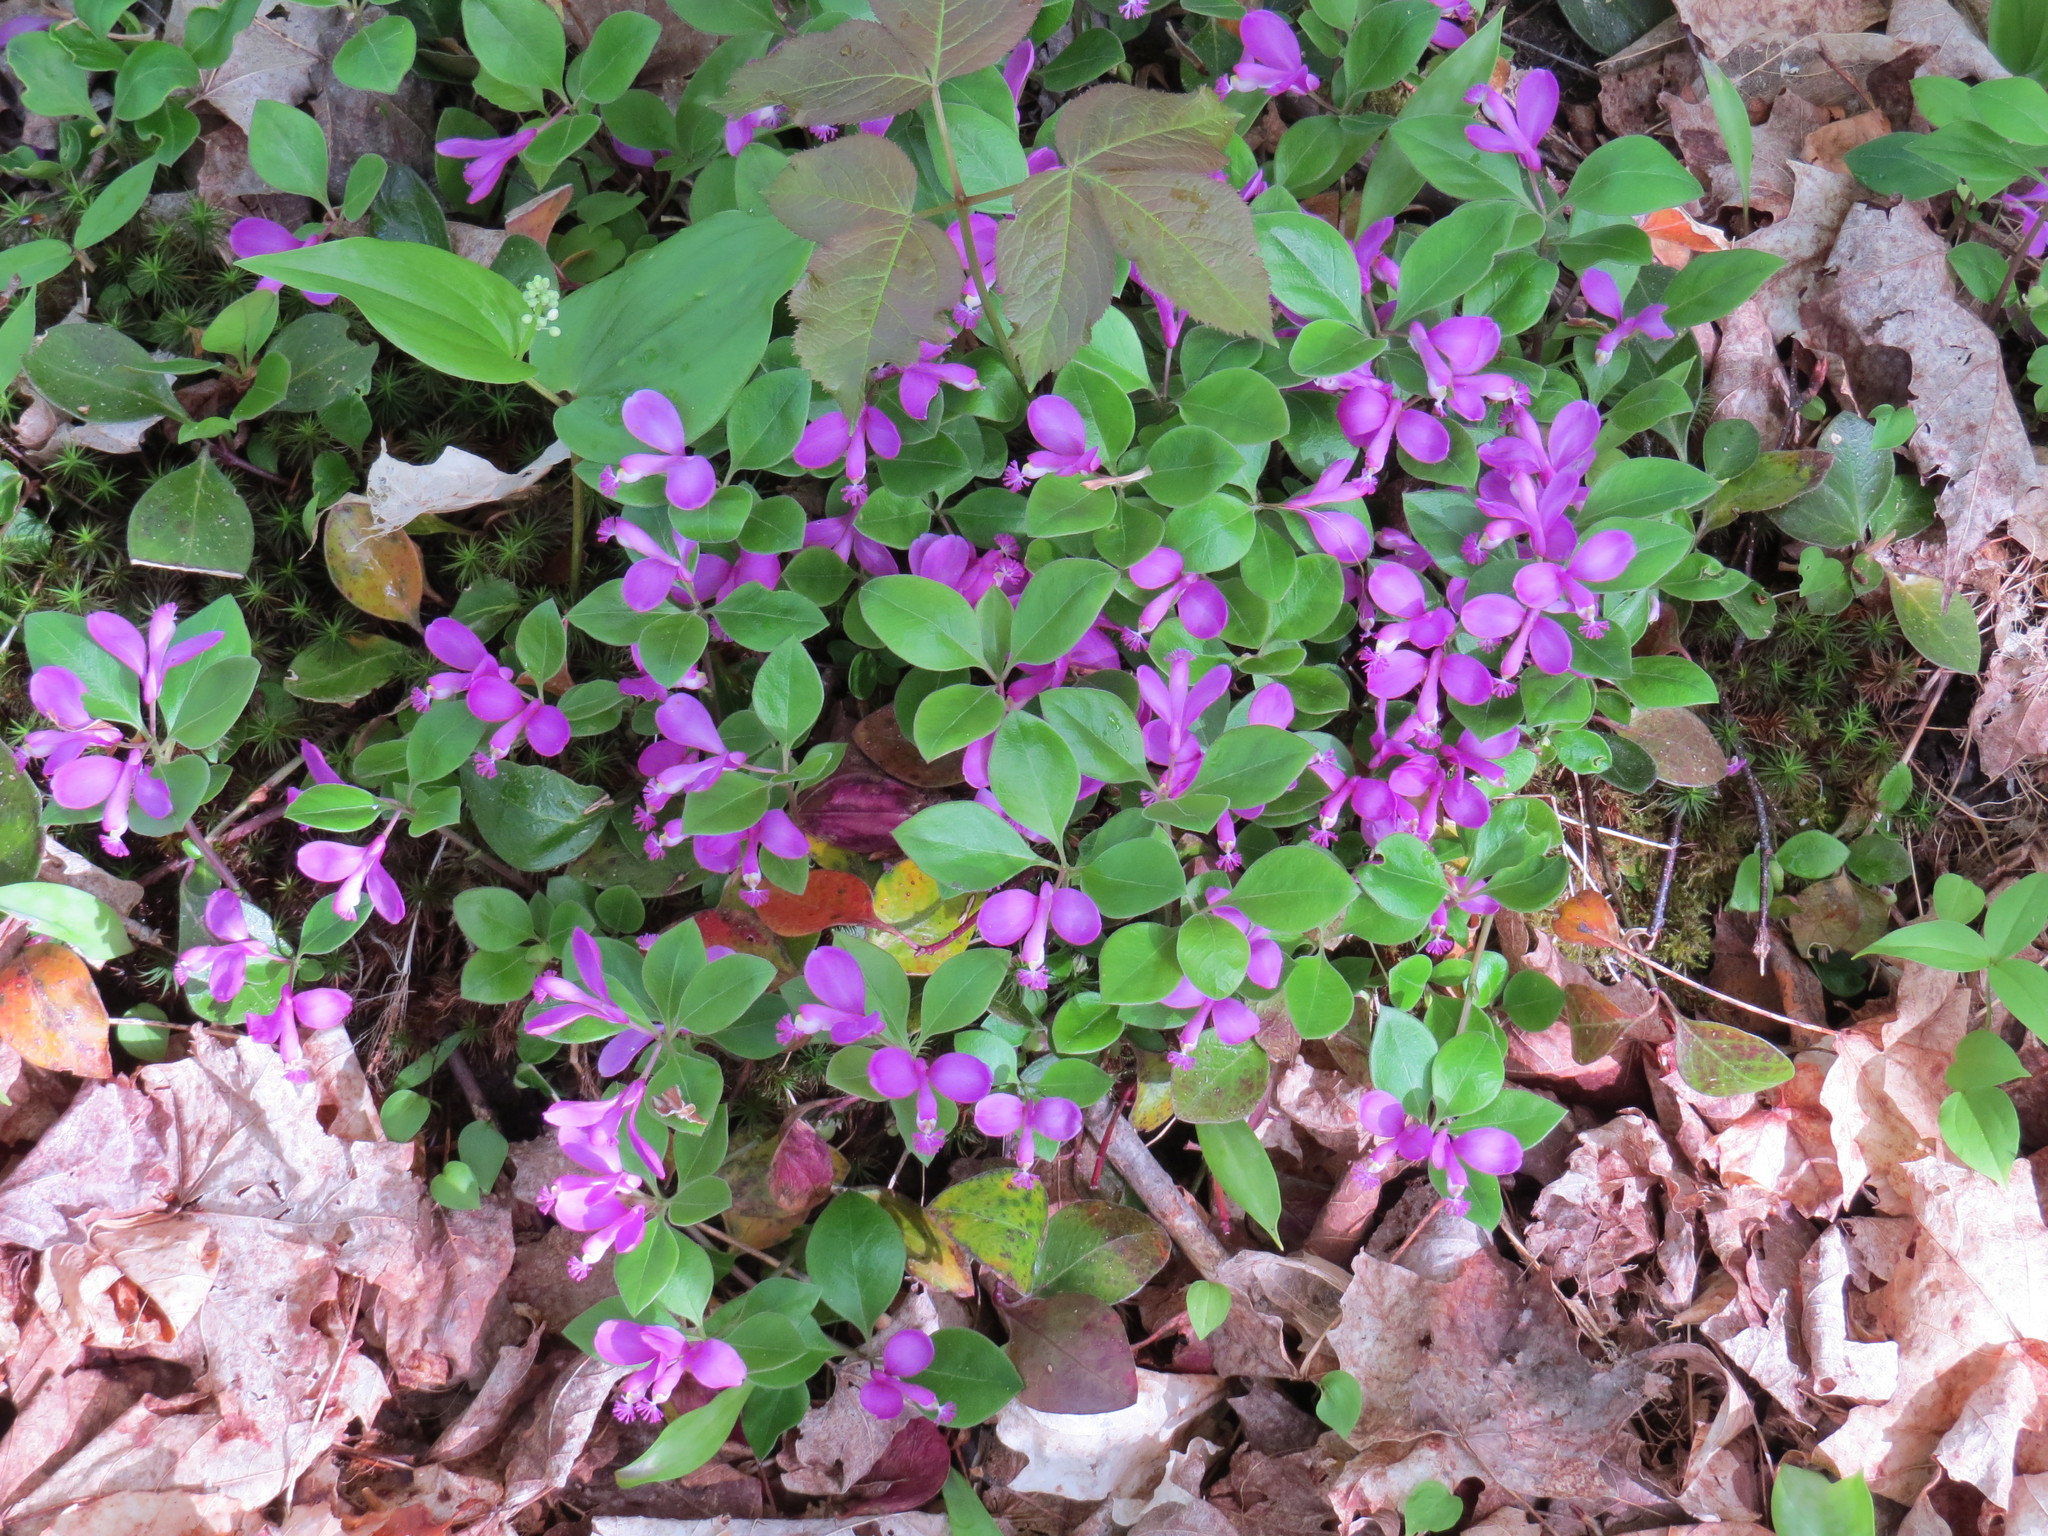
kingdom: Plantae
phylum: Tracheophyta
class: Magnoliopsida
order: Fabales
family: Polygalaceae
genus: Polygaloides
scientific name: Polygaloides paucifolia
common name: Bird-on-the-wing
